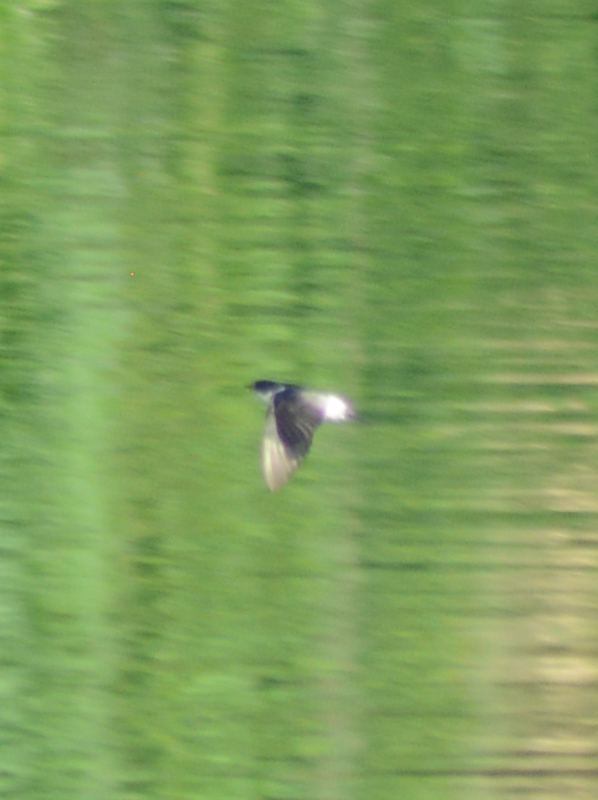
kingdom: Animalia
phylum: Chordata
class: Aves
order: Passeriformes
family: Hirundinidae
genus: Tachycineta
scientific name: Tachycineta albilinea
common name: Mangrove swallow
